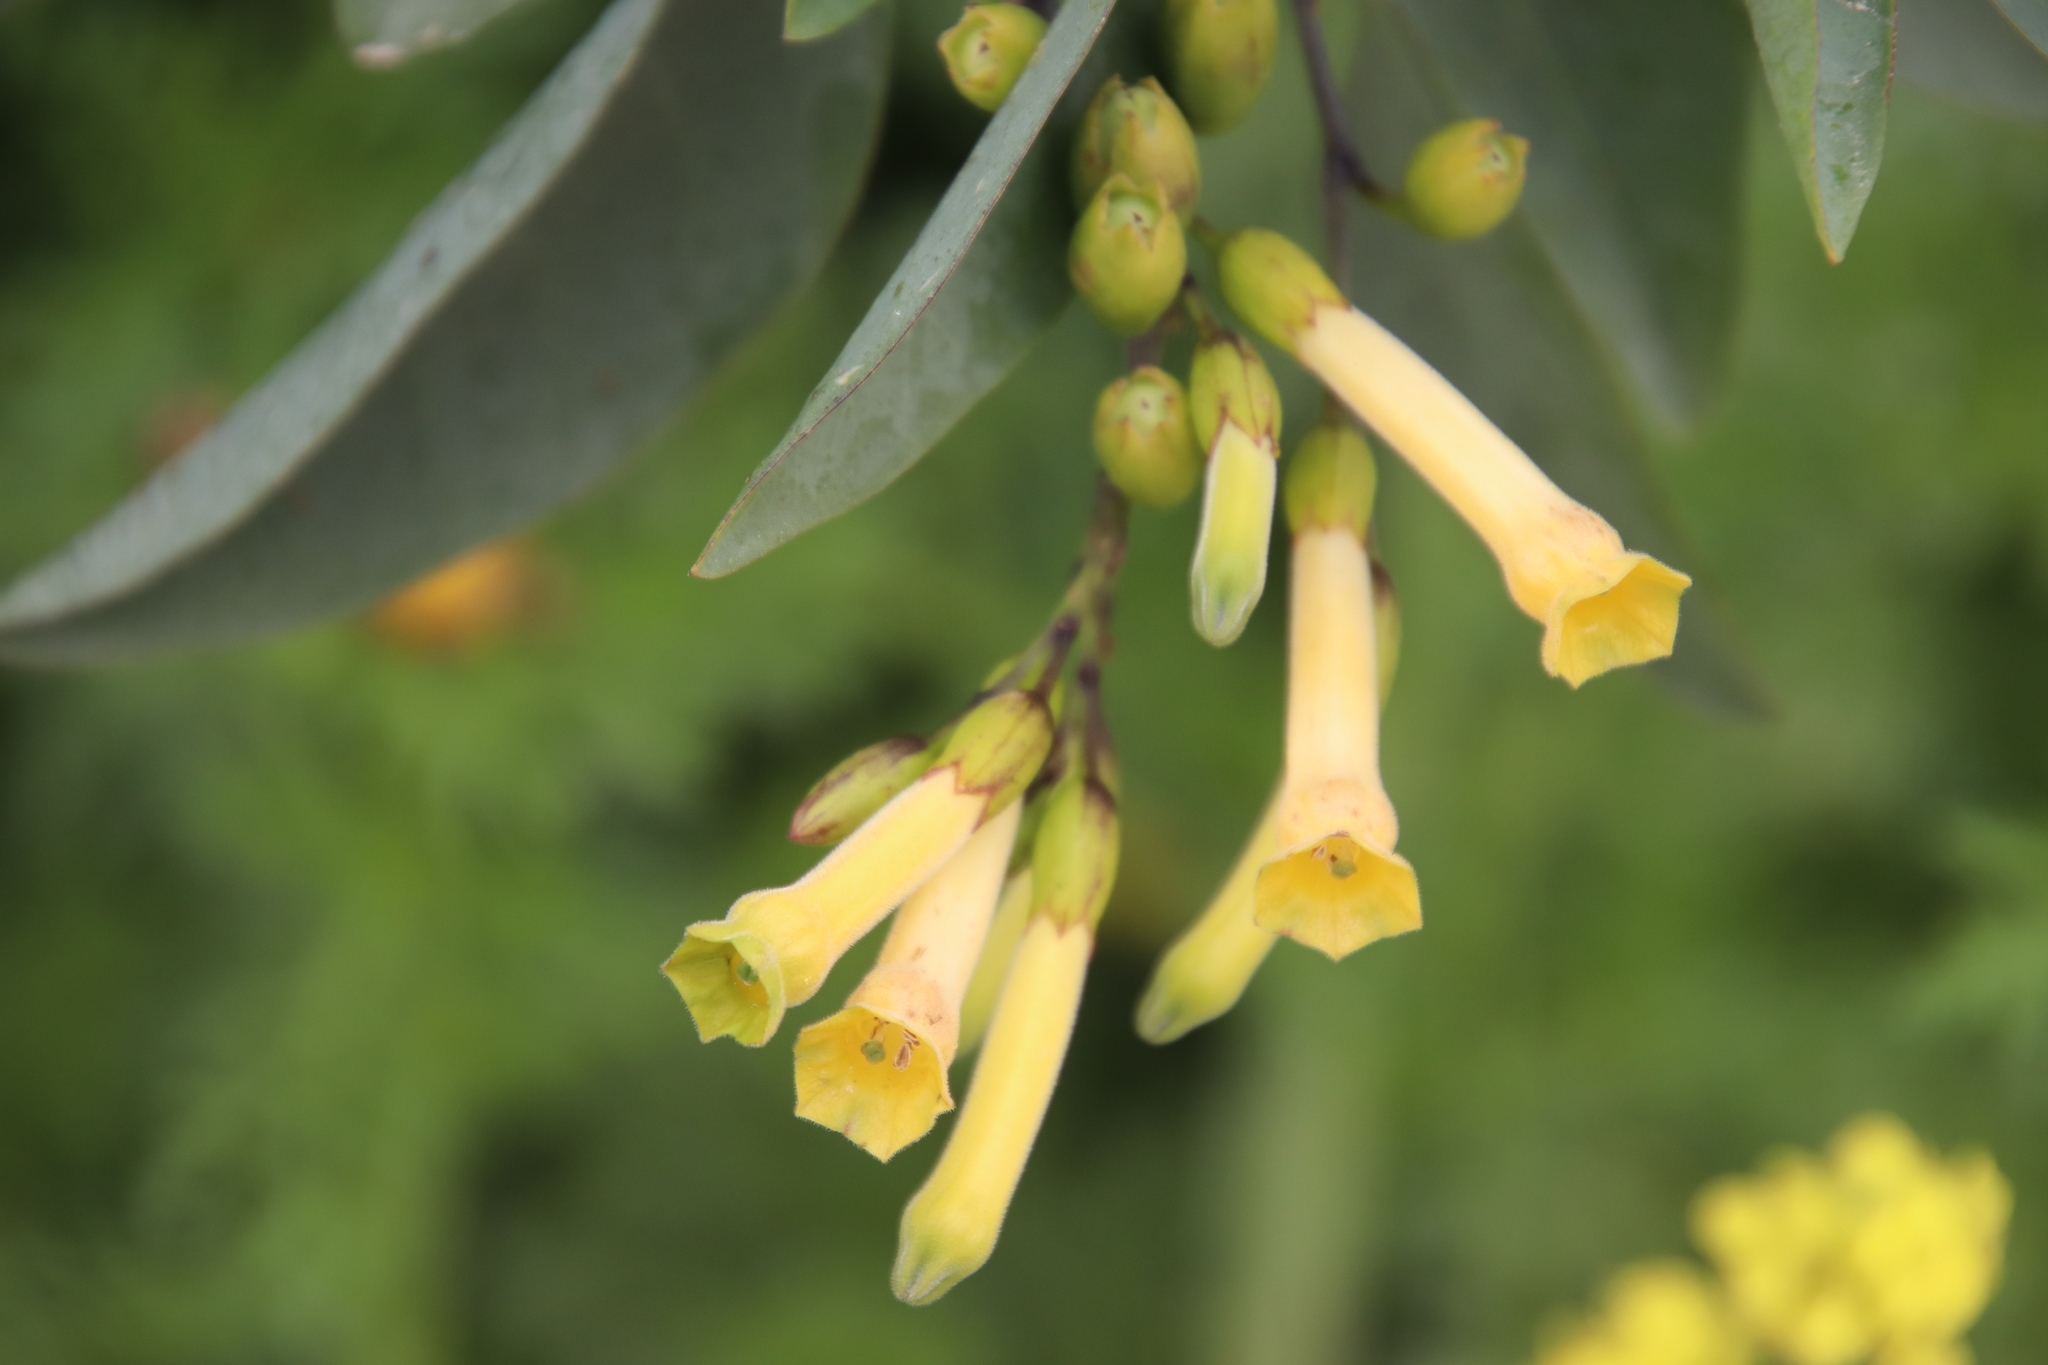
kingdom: Plantae
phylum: Tracheophyta
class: Magnoliopsida
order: Solanales
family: Solanaceae
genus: Nicotiana
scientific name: Nicotiana glauca
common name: Tree tobacco
